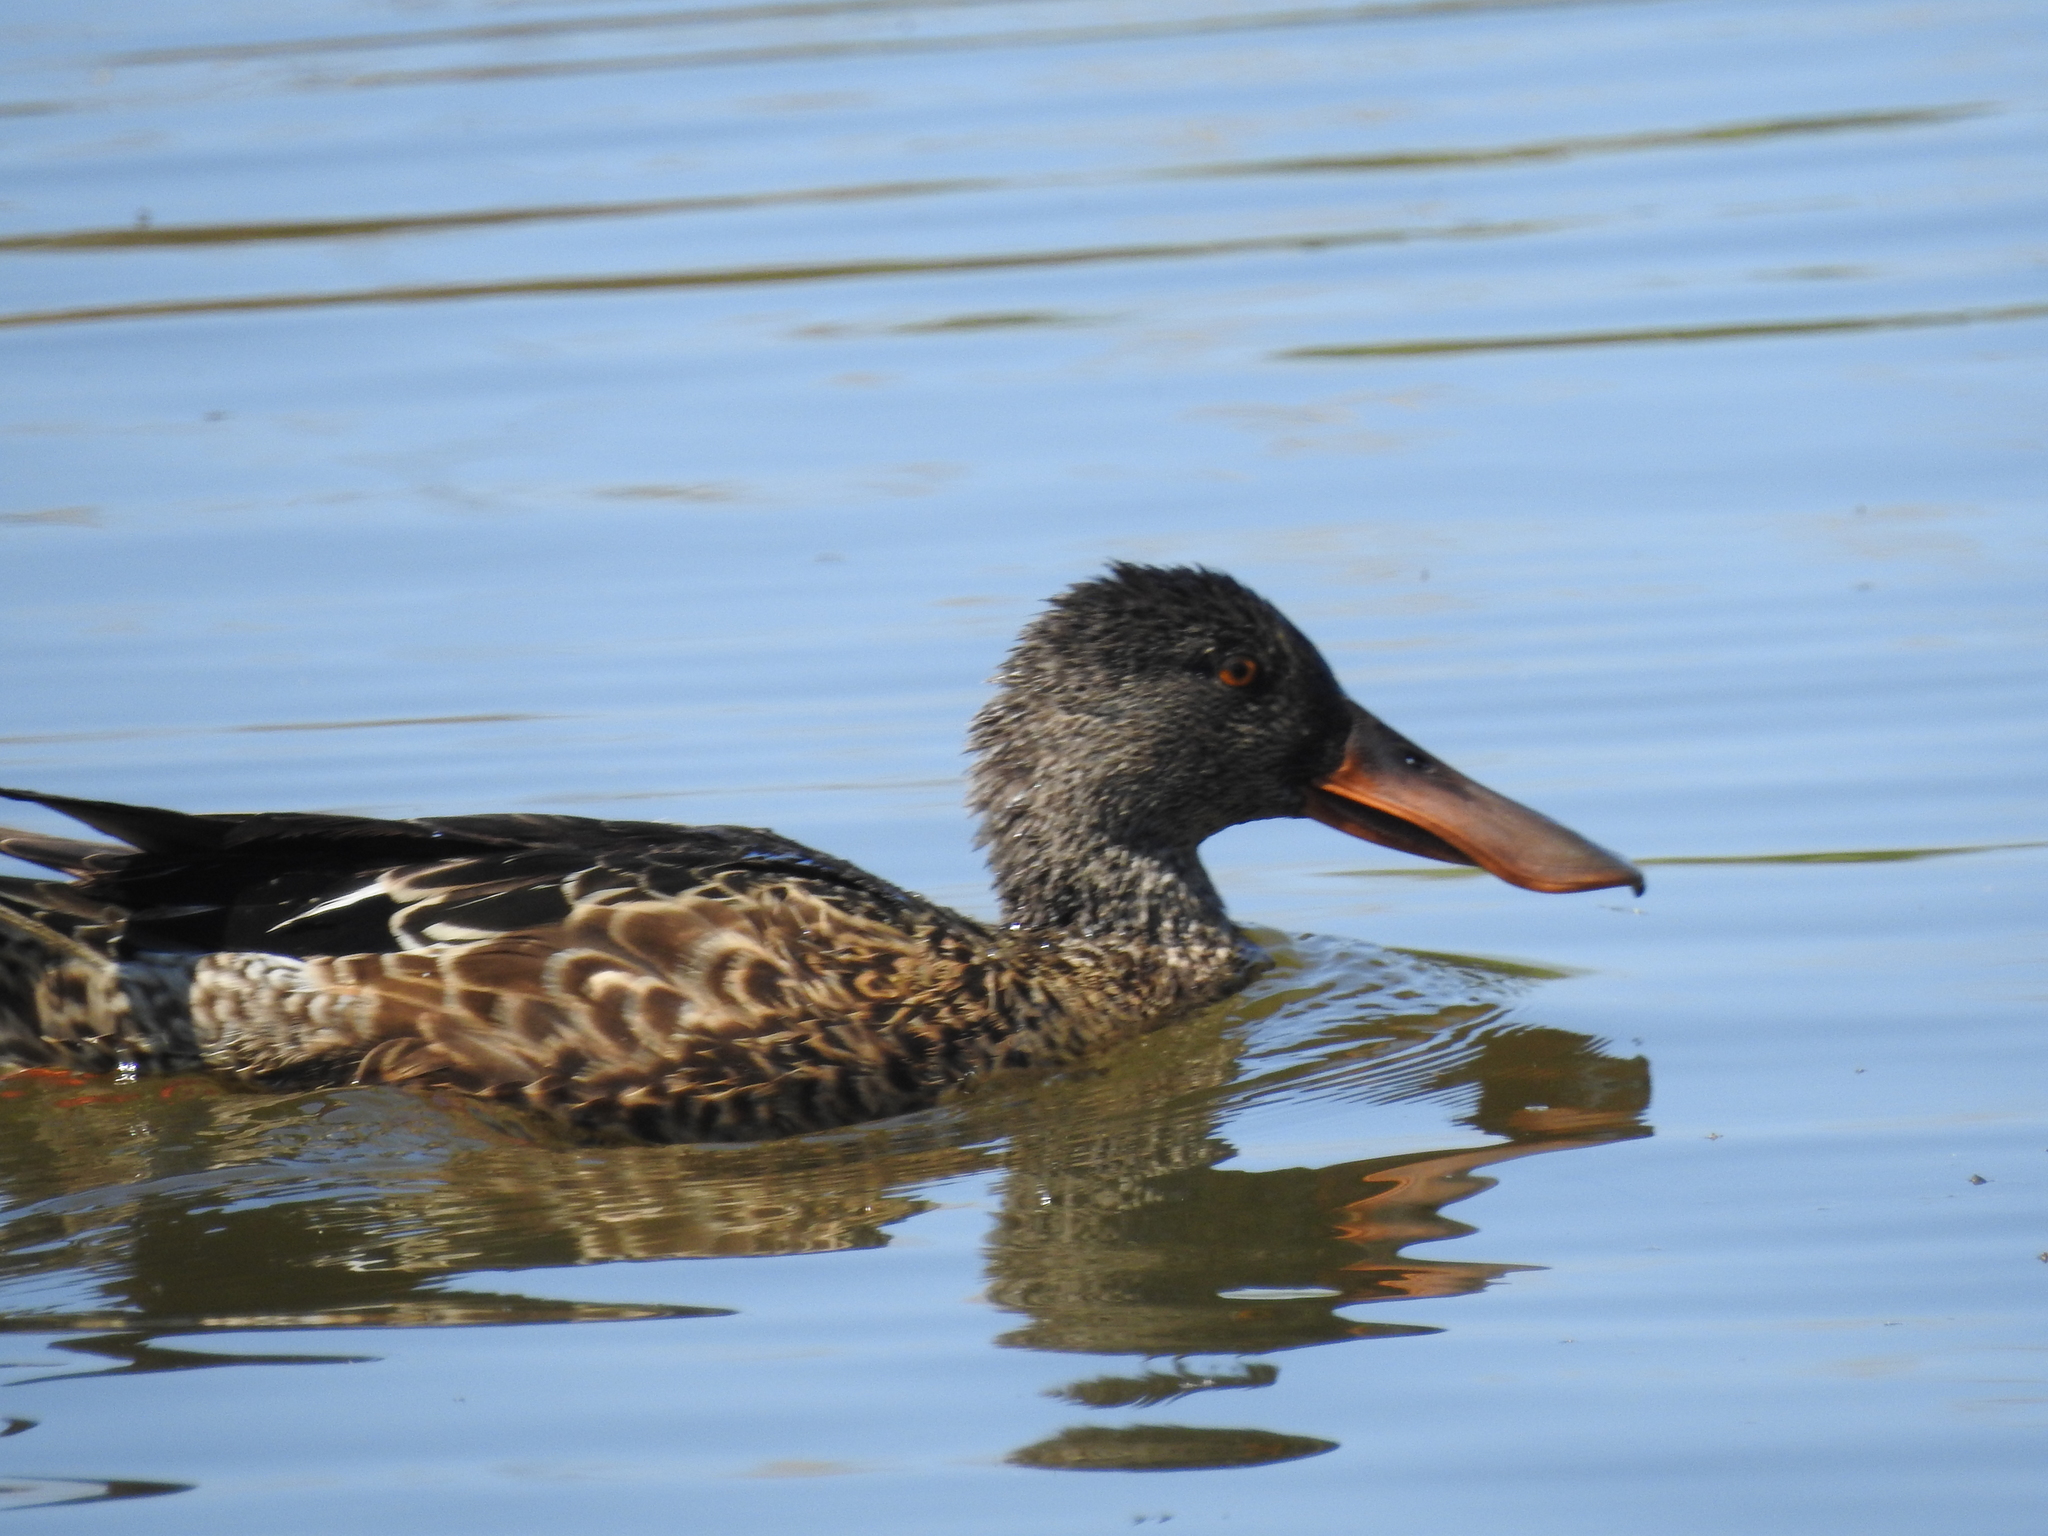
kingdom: Animalia
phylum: Chordata
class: Aves
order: Anseriformes
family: Anatidae
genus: Spatula
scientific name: Spatula clypeata
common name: Northern shoveler
